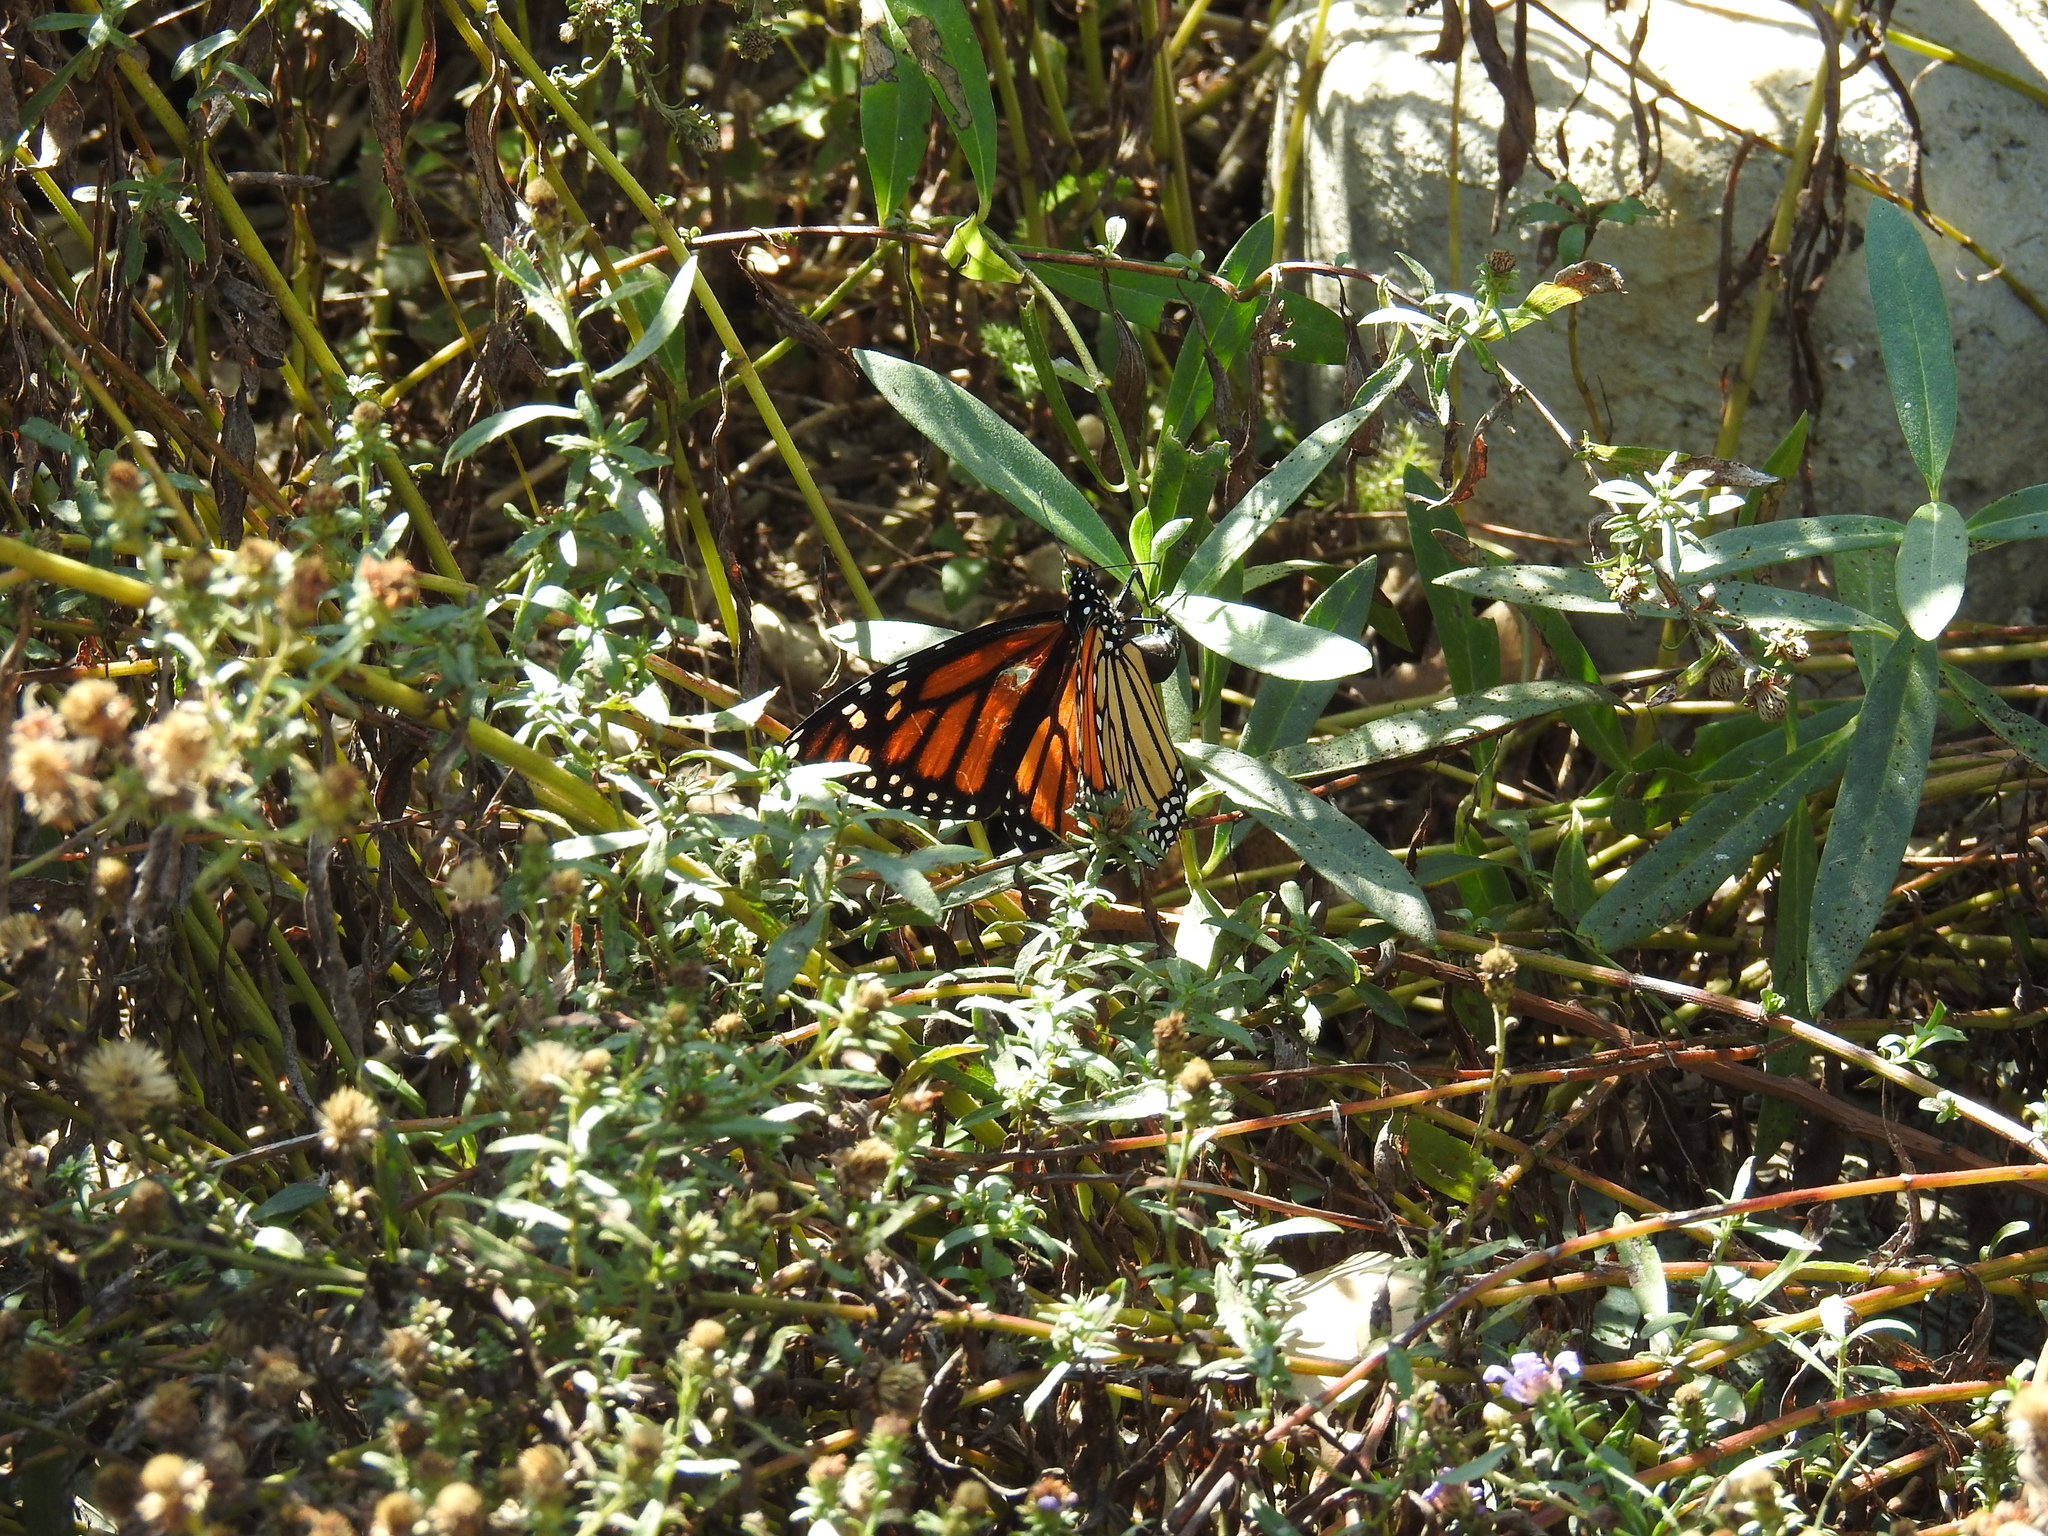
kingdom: Animalia
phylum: Arthropoda
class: Insecta
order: Lepidoptera
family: Nymphalidae
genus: Danaus
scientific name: Danaus plexippus
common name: Monarch
